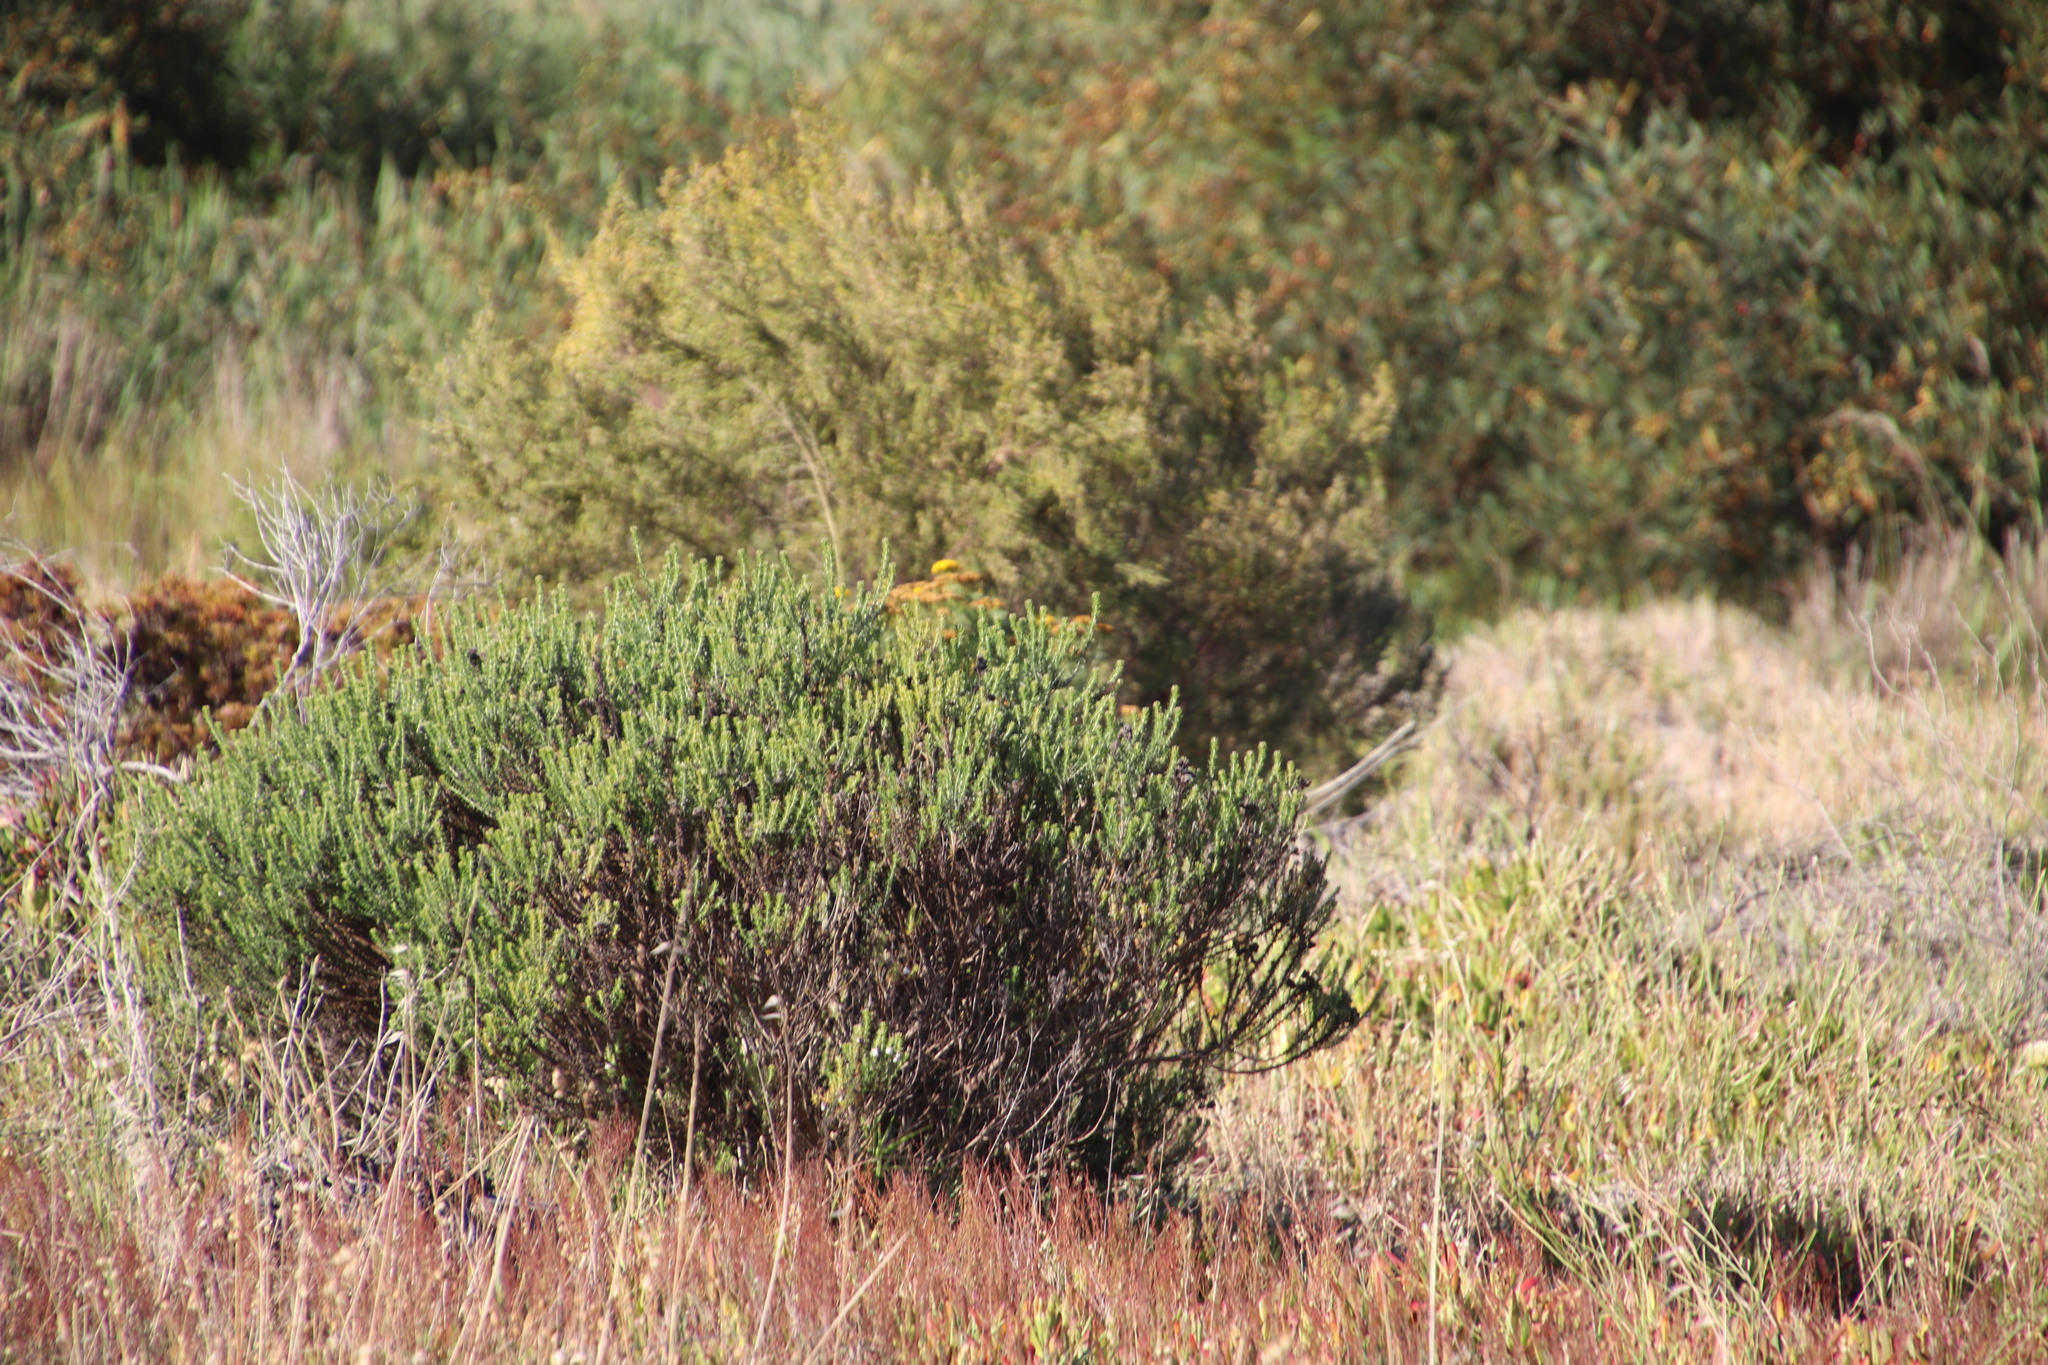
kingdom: Plantae
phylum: Tracheophyta
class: Magnoliopsida
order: Asterales
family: Asteraceae
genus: Metalasia
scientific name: Metalasia densa
